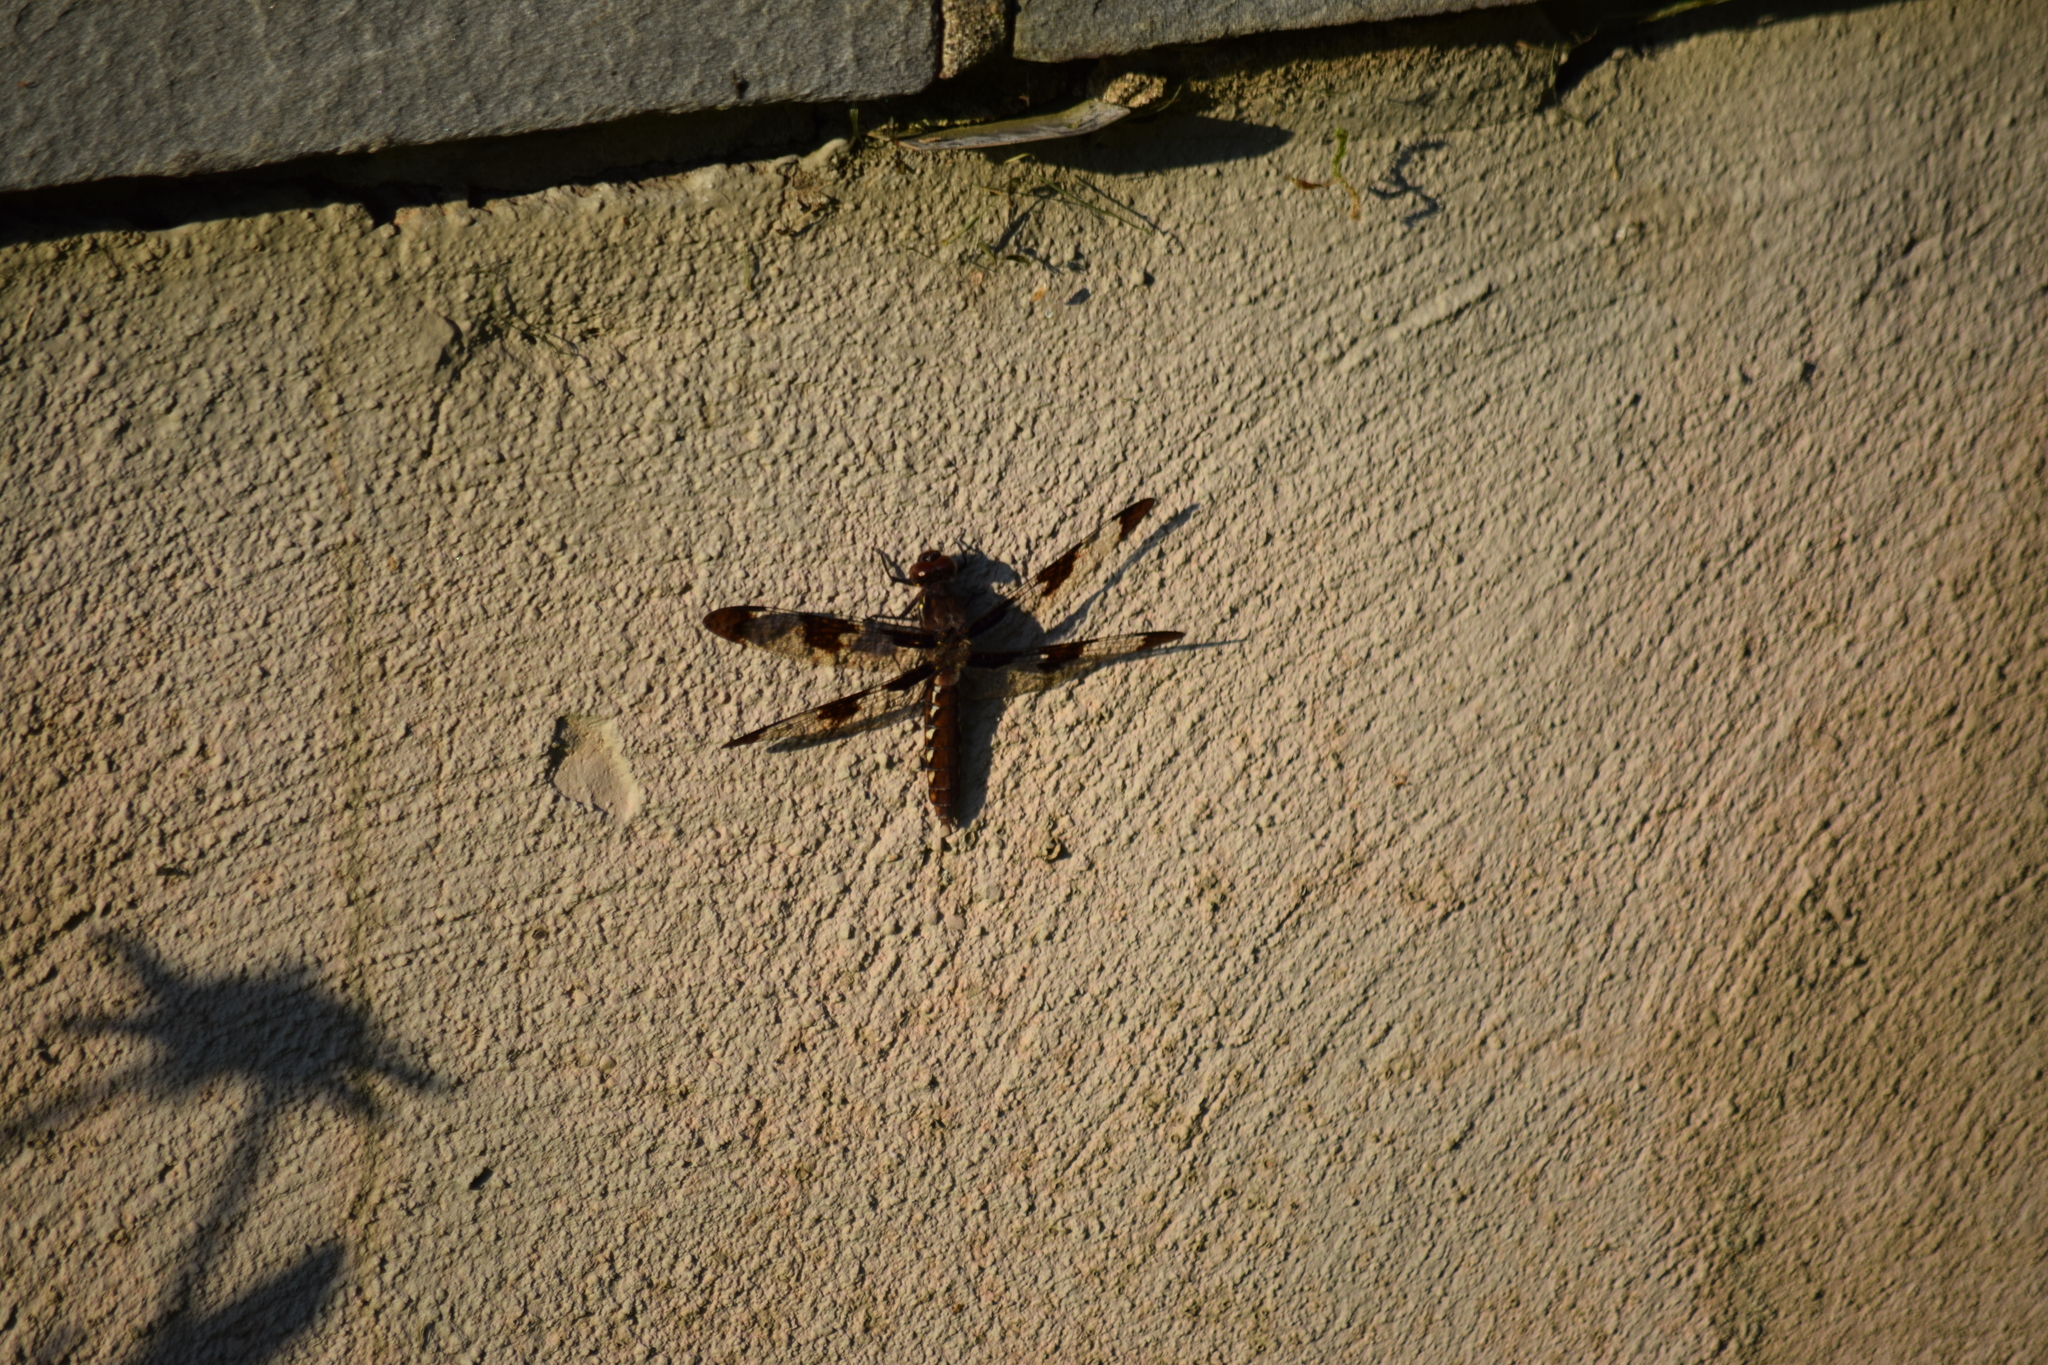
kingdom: Animalia
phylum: Arthropoda
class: Insecta
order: Odonata
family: Libellulidae
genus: Plathemis
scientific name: Plathemis lydia
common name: Common whitetail
